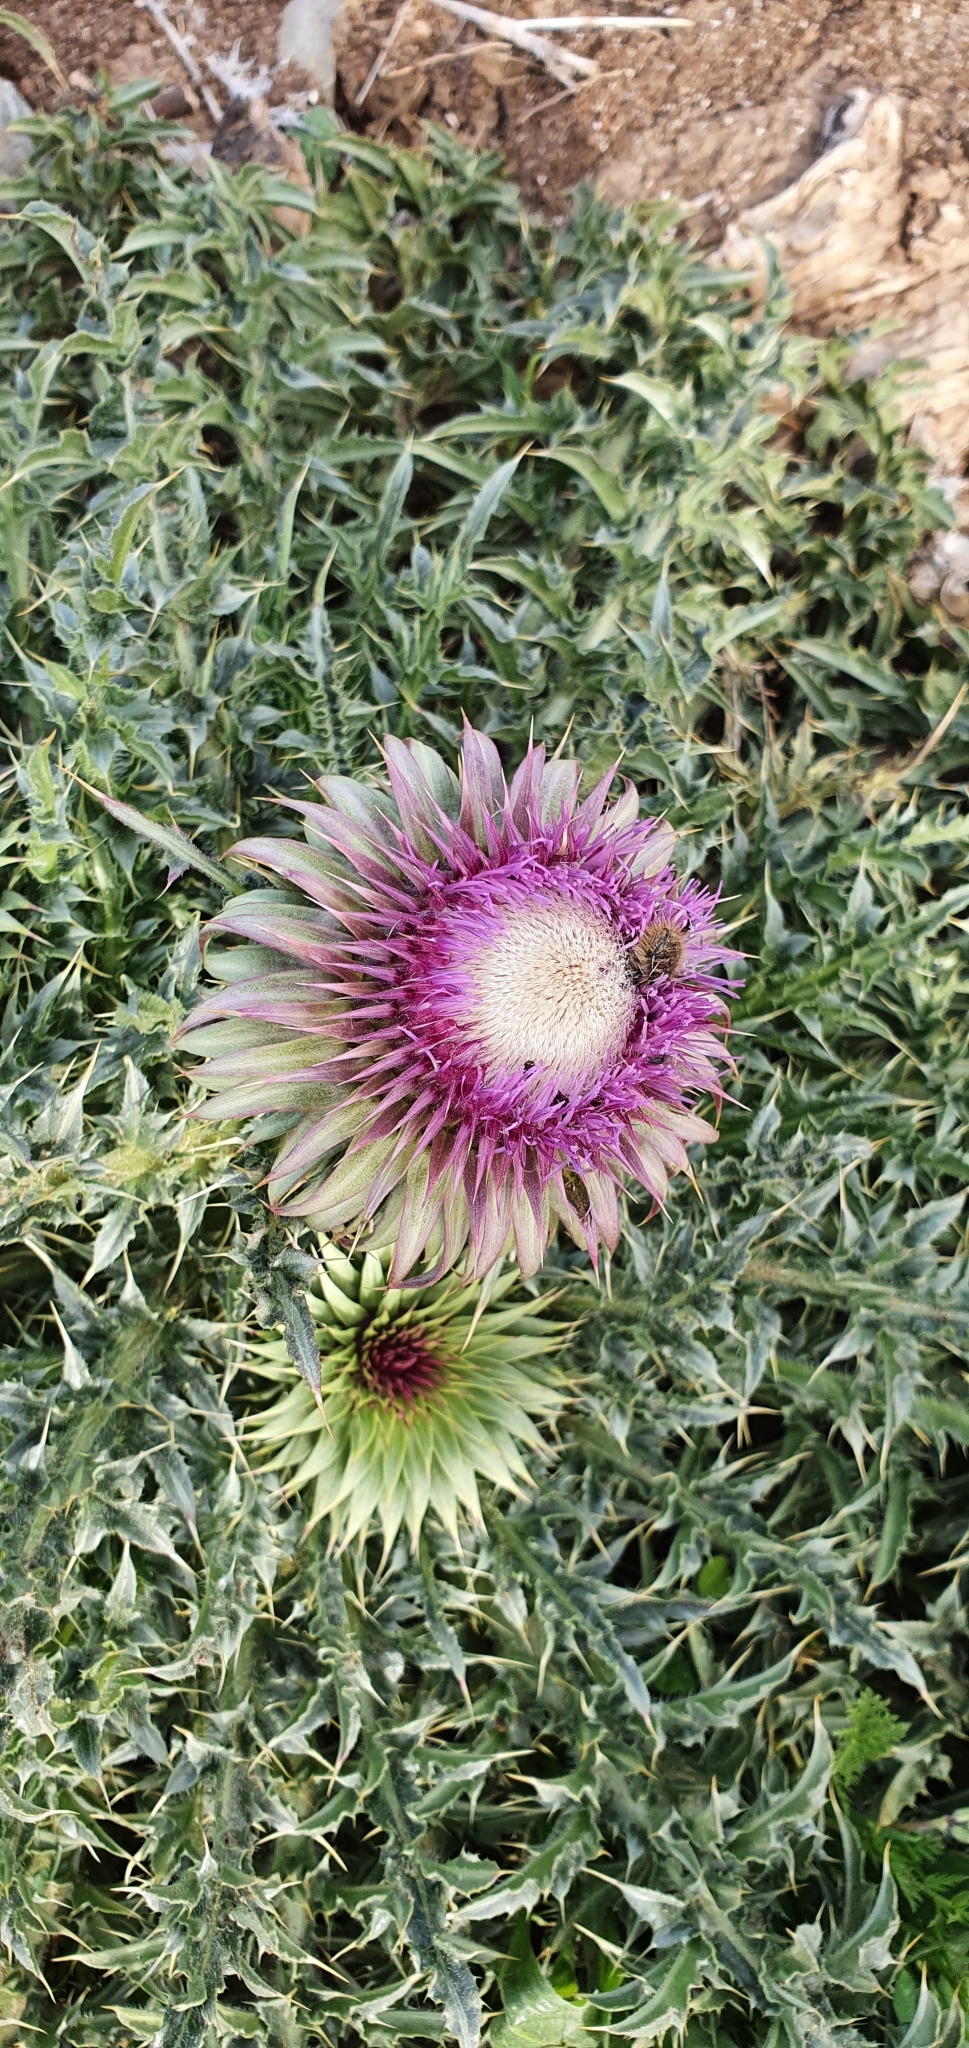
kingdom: Plantae
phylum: Tracheophyta
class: Magnoliopsida
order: Asterales
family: Asteraceae
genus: Carduus
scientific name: Carduus macrocephalus
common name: Giant thistle
